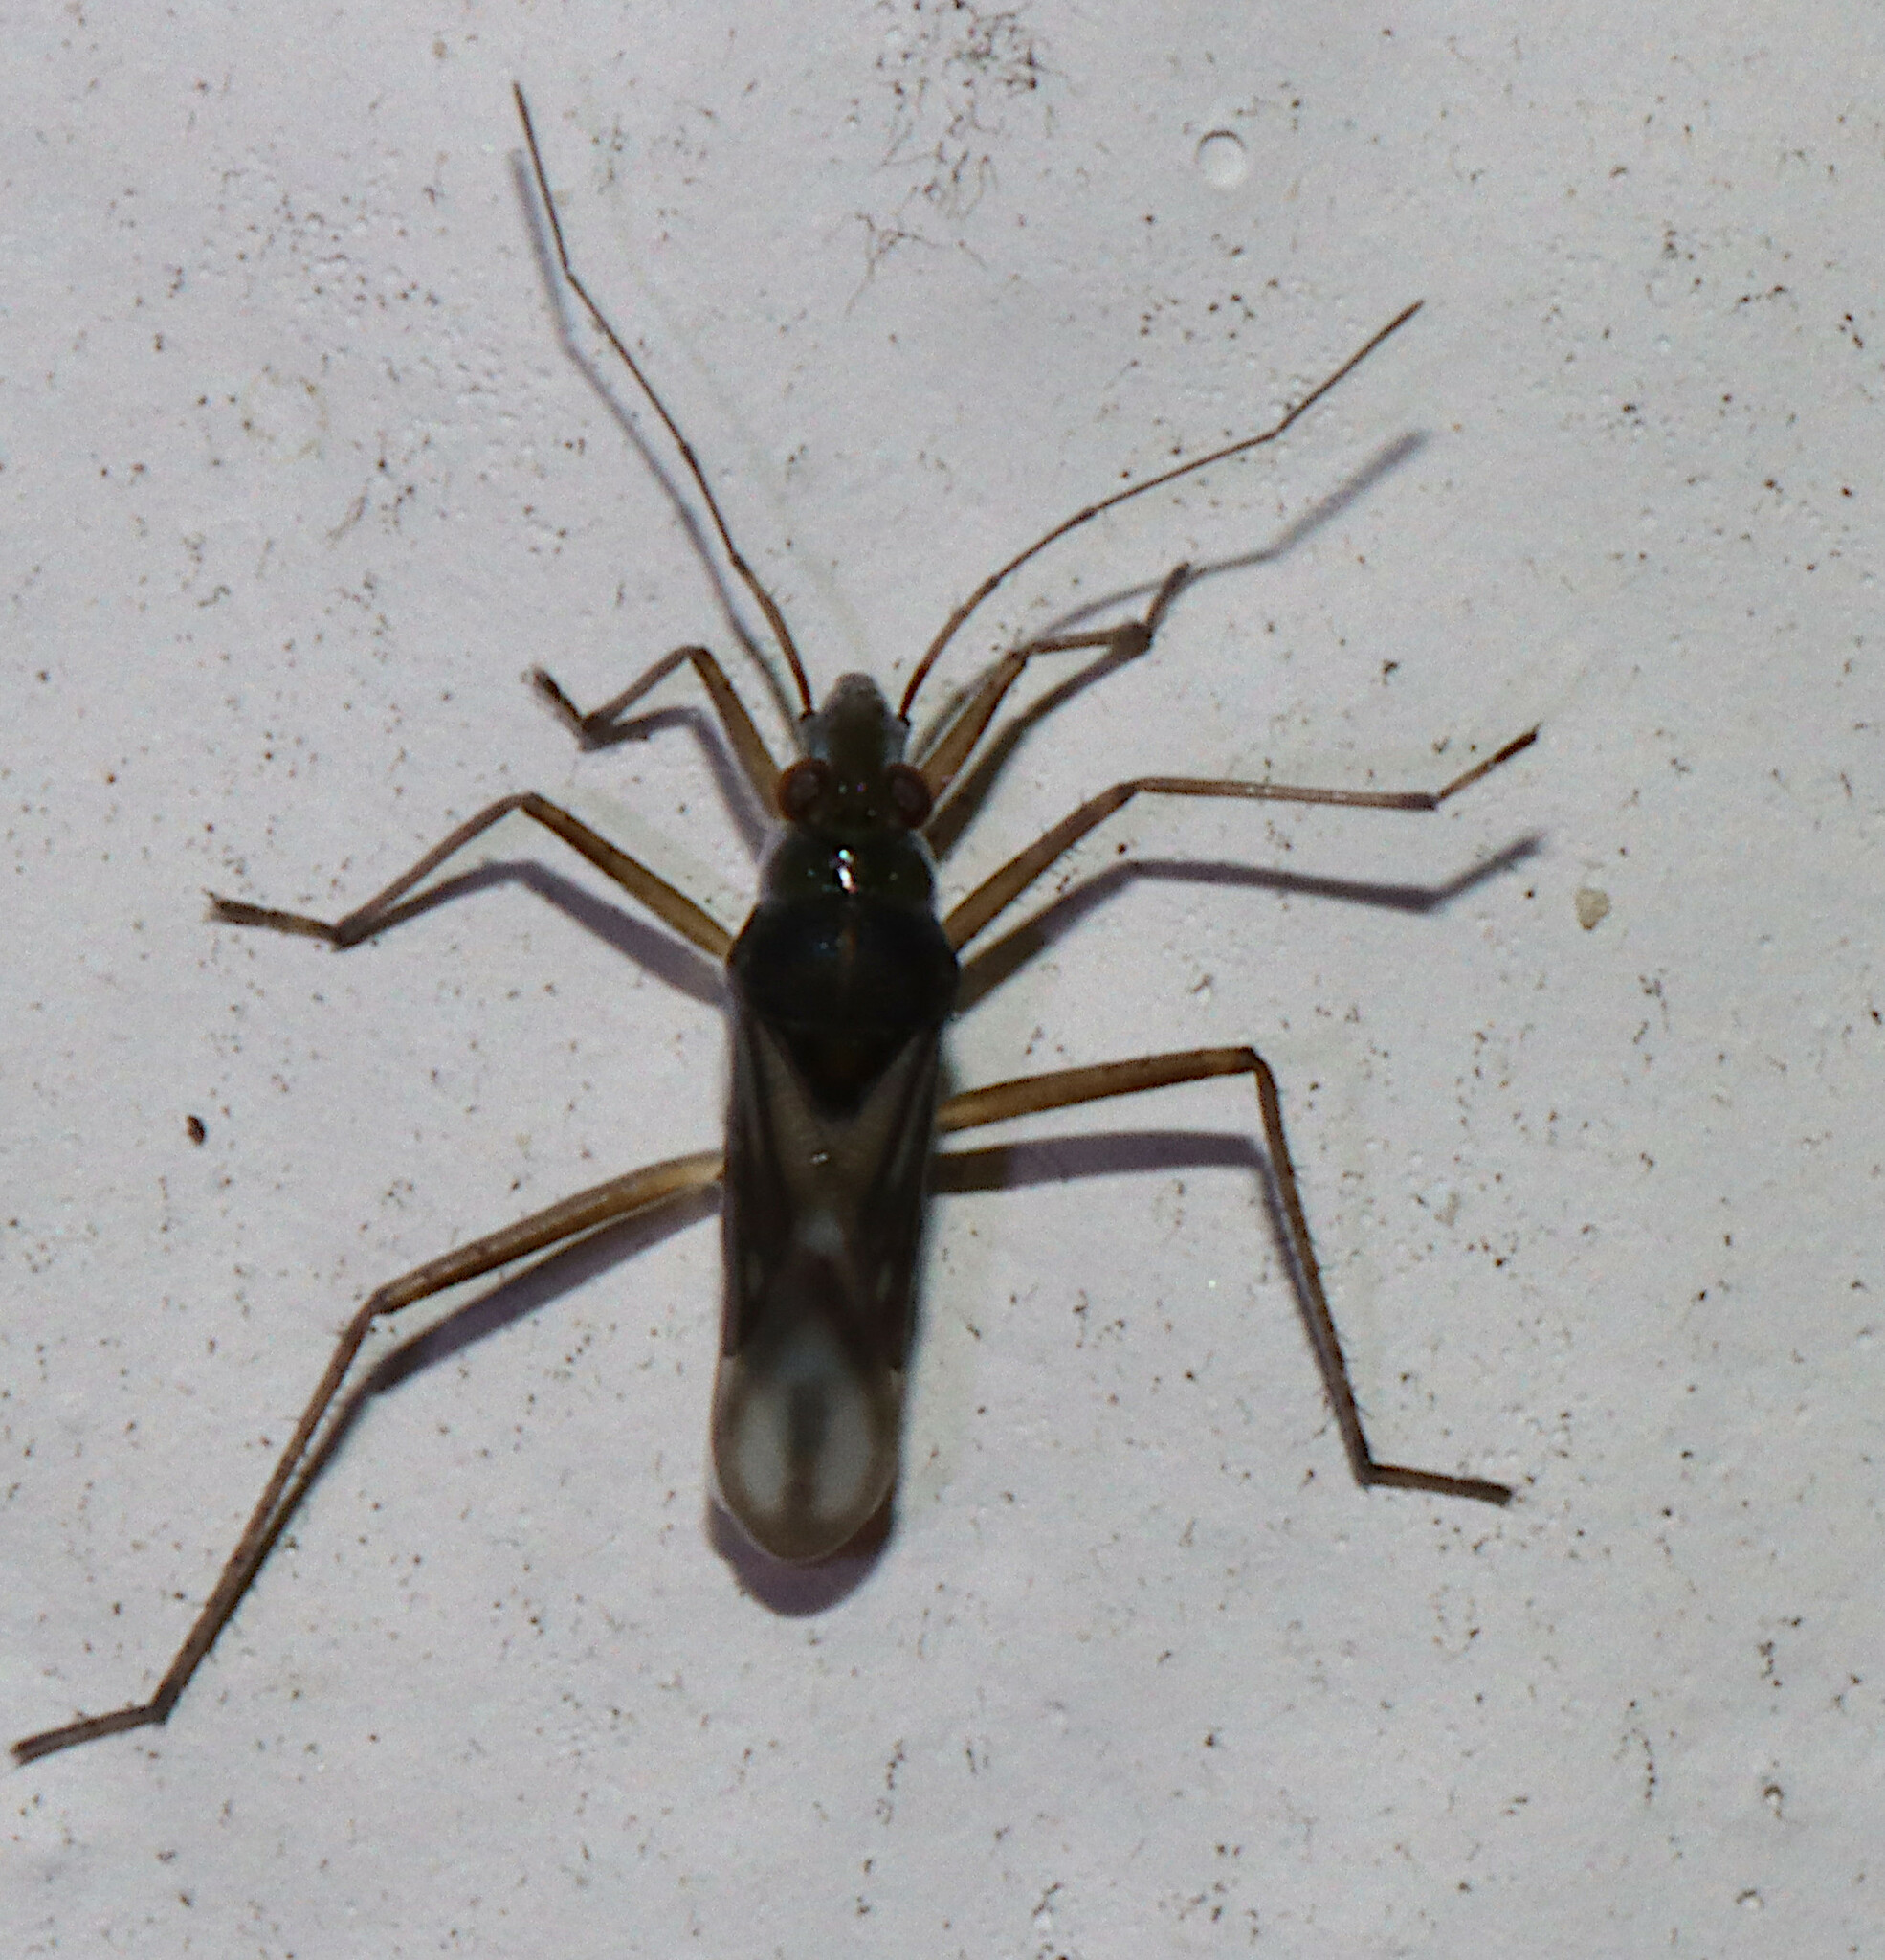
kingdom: Animalia
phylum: Arthropoda
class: Insecta
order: Hemiptera
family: Mesoveliidae
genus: Mesovelia
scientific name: Mesovelia mulsanti
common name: Water treaders
